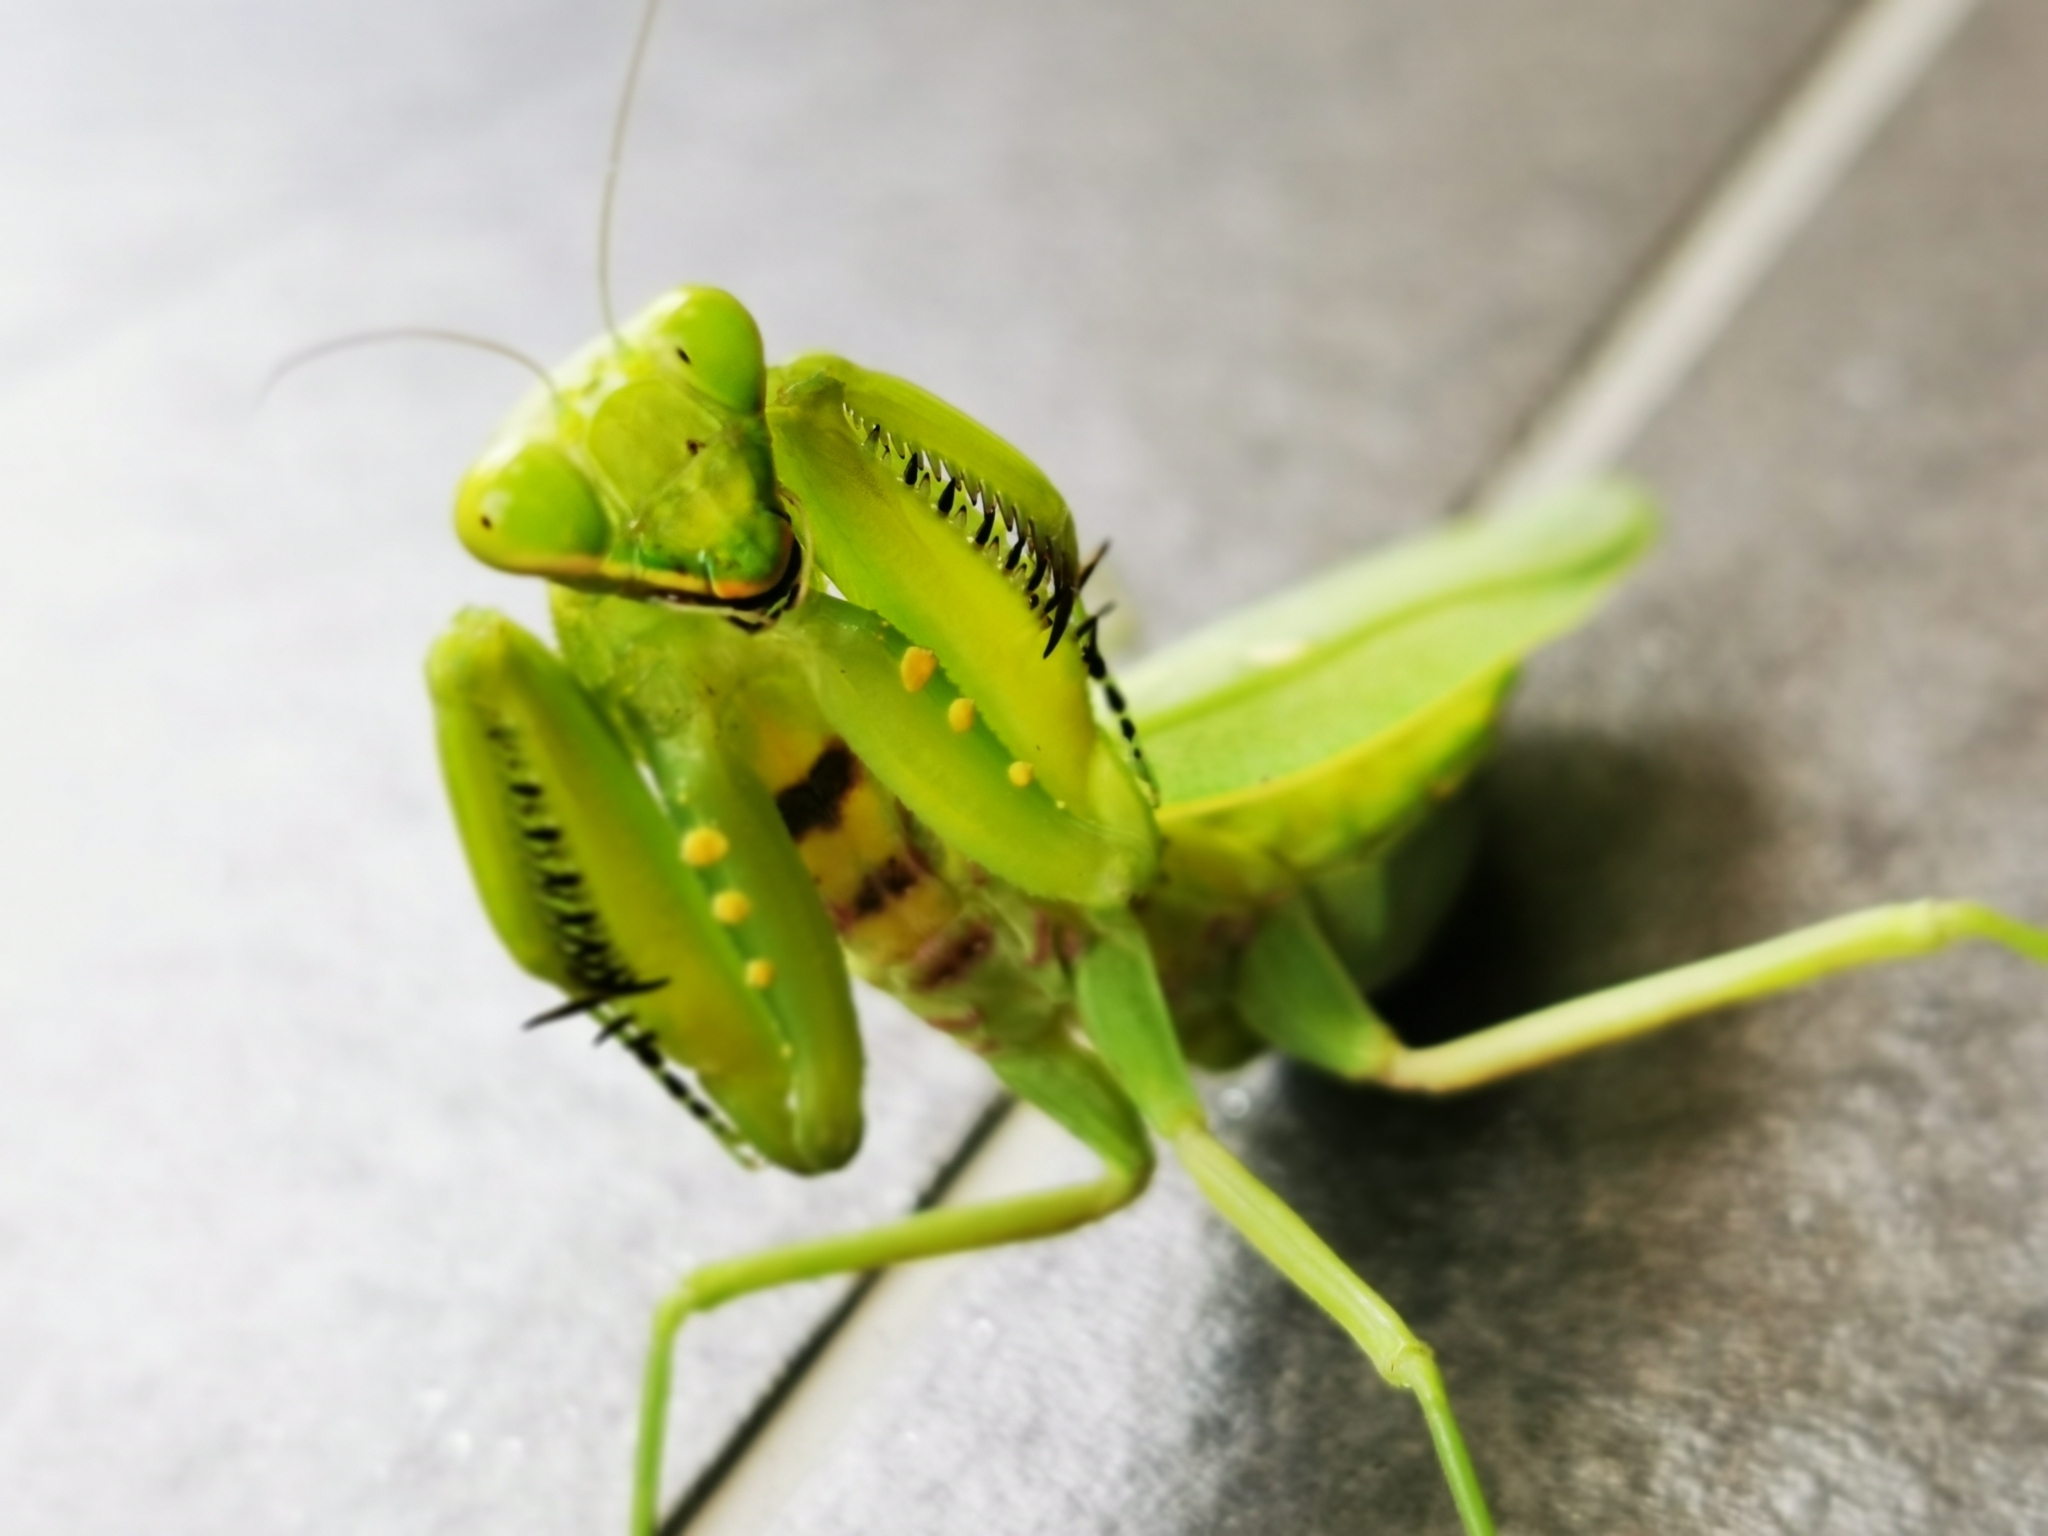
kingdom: Animalia
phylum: Arthropoda
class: Insecta
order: Mantodea
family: Mantidae
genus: Hierodula
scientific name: Hierodula patellifera
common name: Asian mantis
